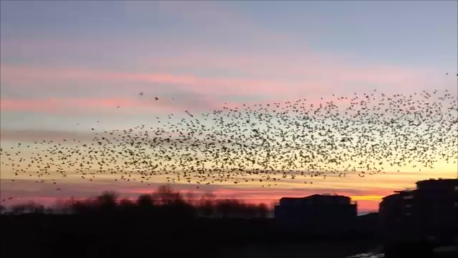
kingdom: Animalia
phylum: Chordata
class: Aves
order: Passeriformes
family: Sturnidae
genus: Sturnus
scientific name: Sturnus vulgaris
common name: Common starling
